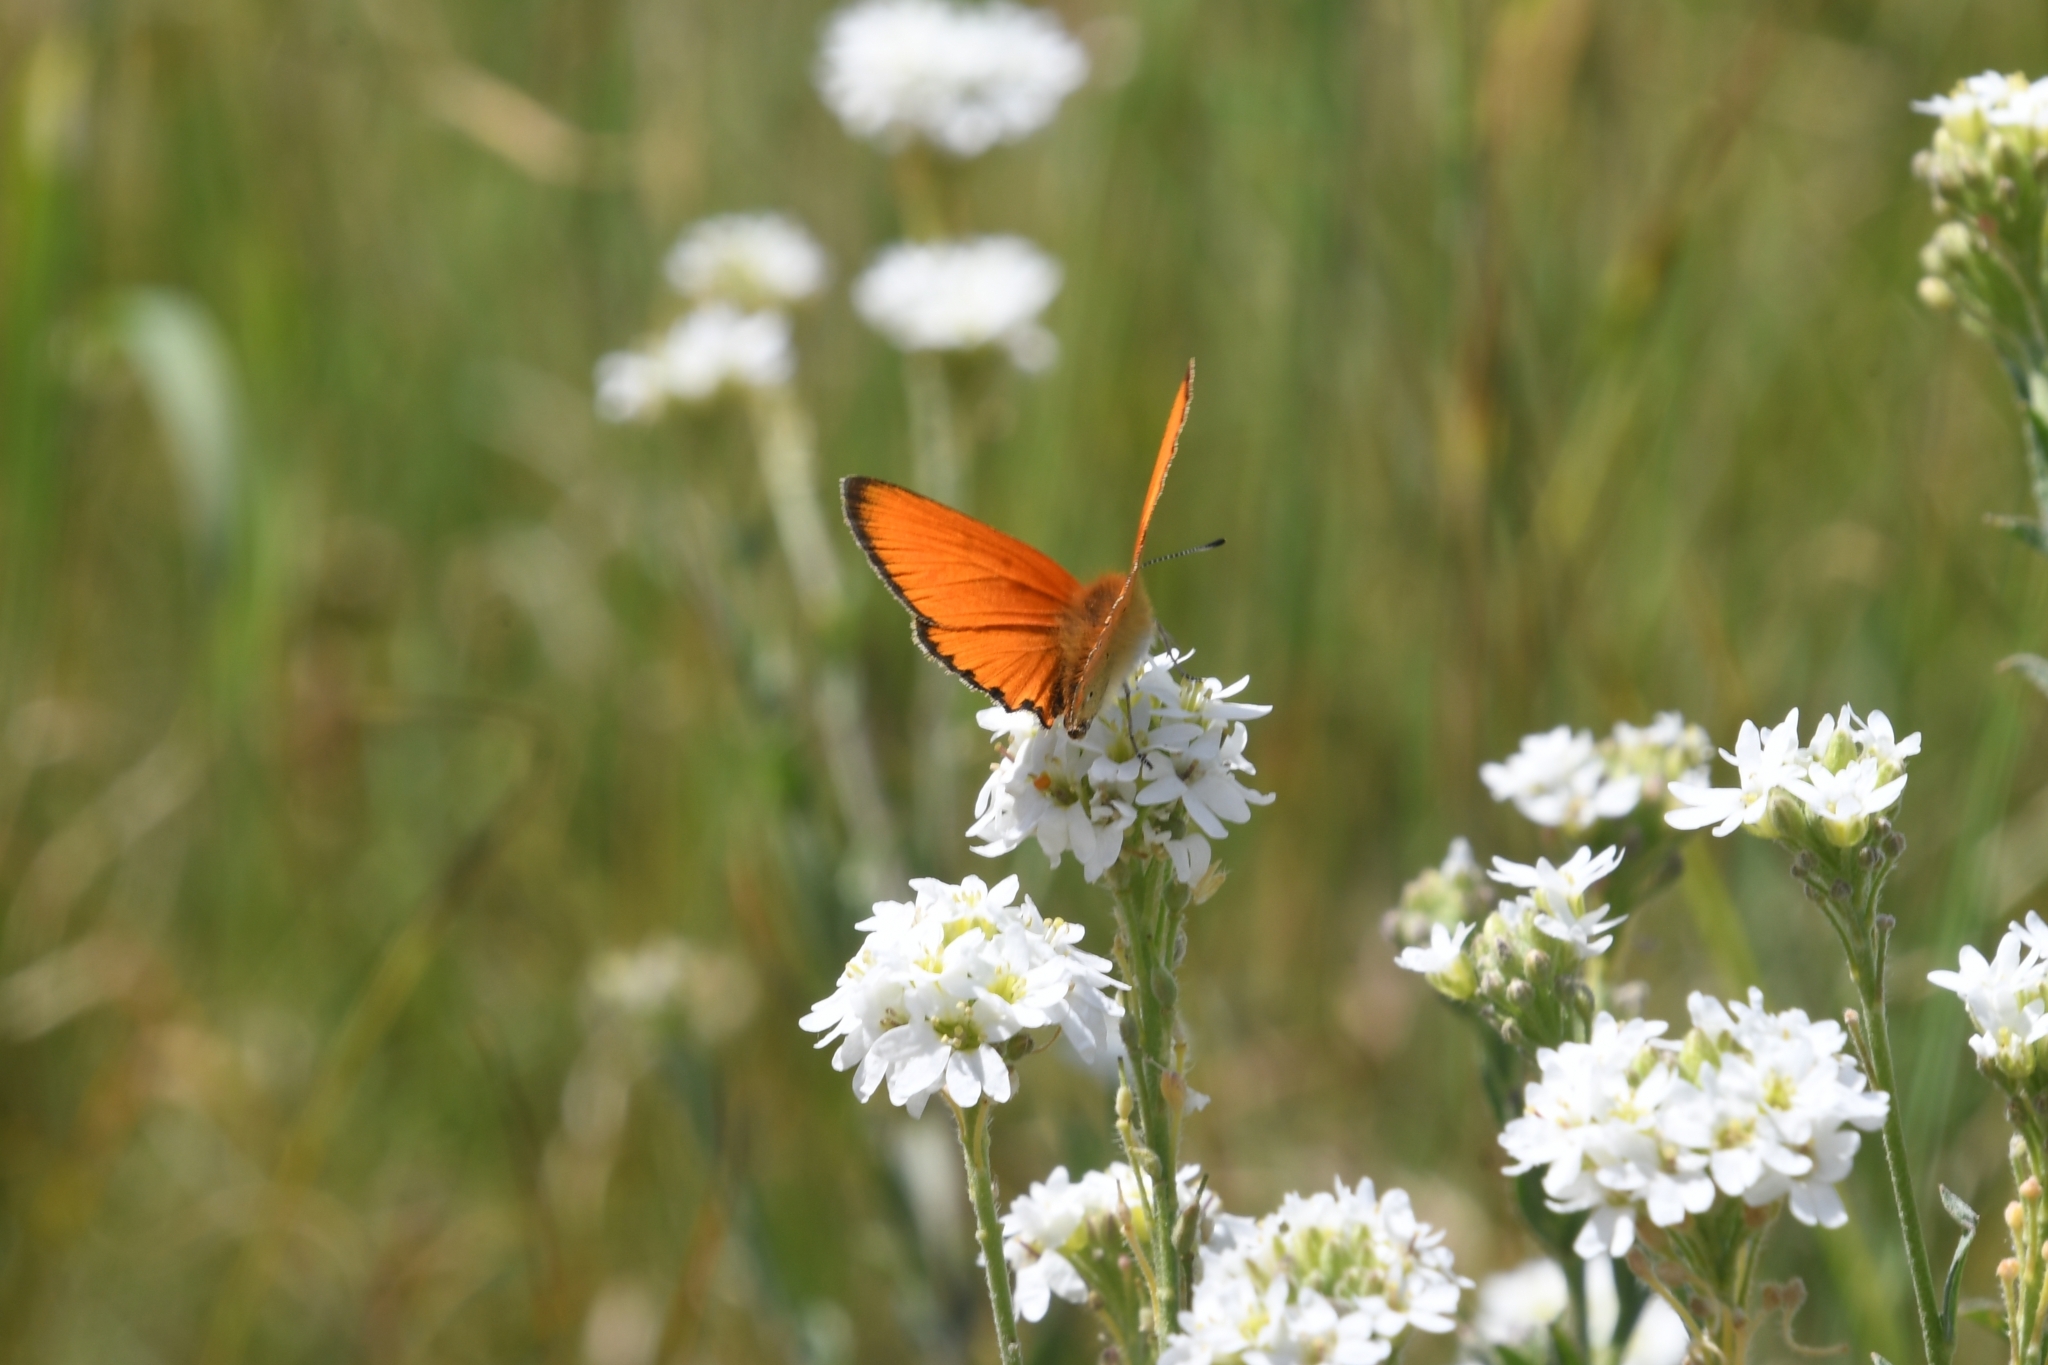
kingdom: Animalia
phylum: Arthropoda
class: Insecta
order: Lepidoptera
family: Lycaenidae
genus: Lycaena
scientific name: Lycaena virgaureae
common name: Scarce copper
